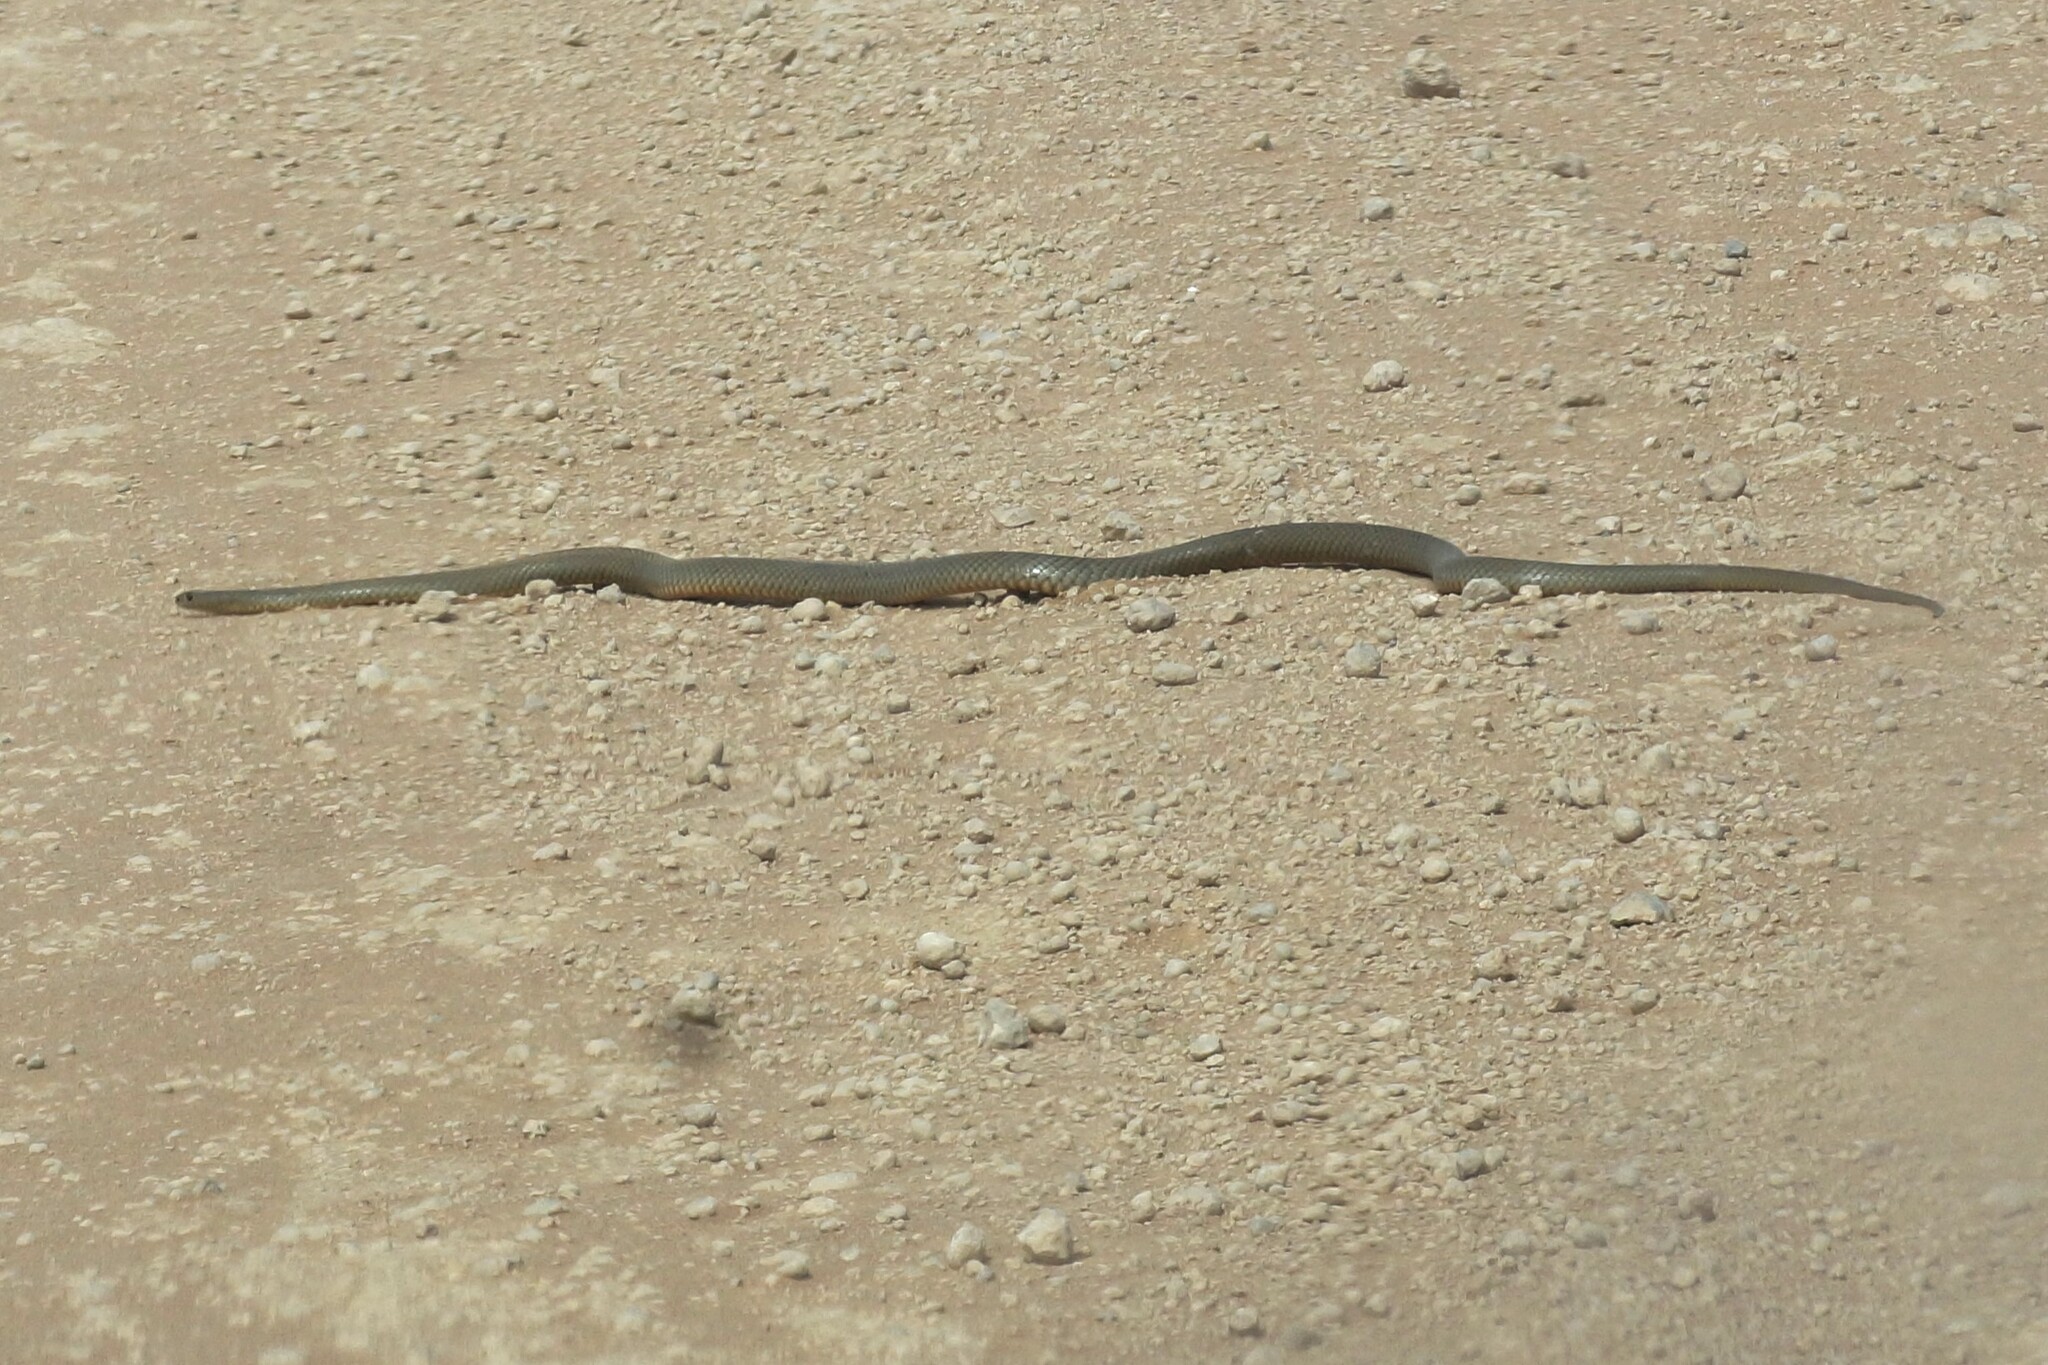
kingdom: Animalia
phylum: Chordata
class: Squamata
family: Elapidae
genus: Pseudonaja
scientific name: Pseudonaja textilis
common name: Eastern brown snake
